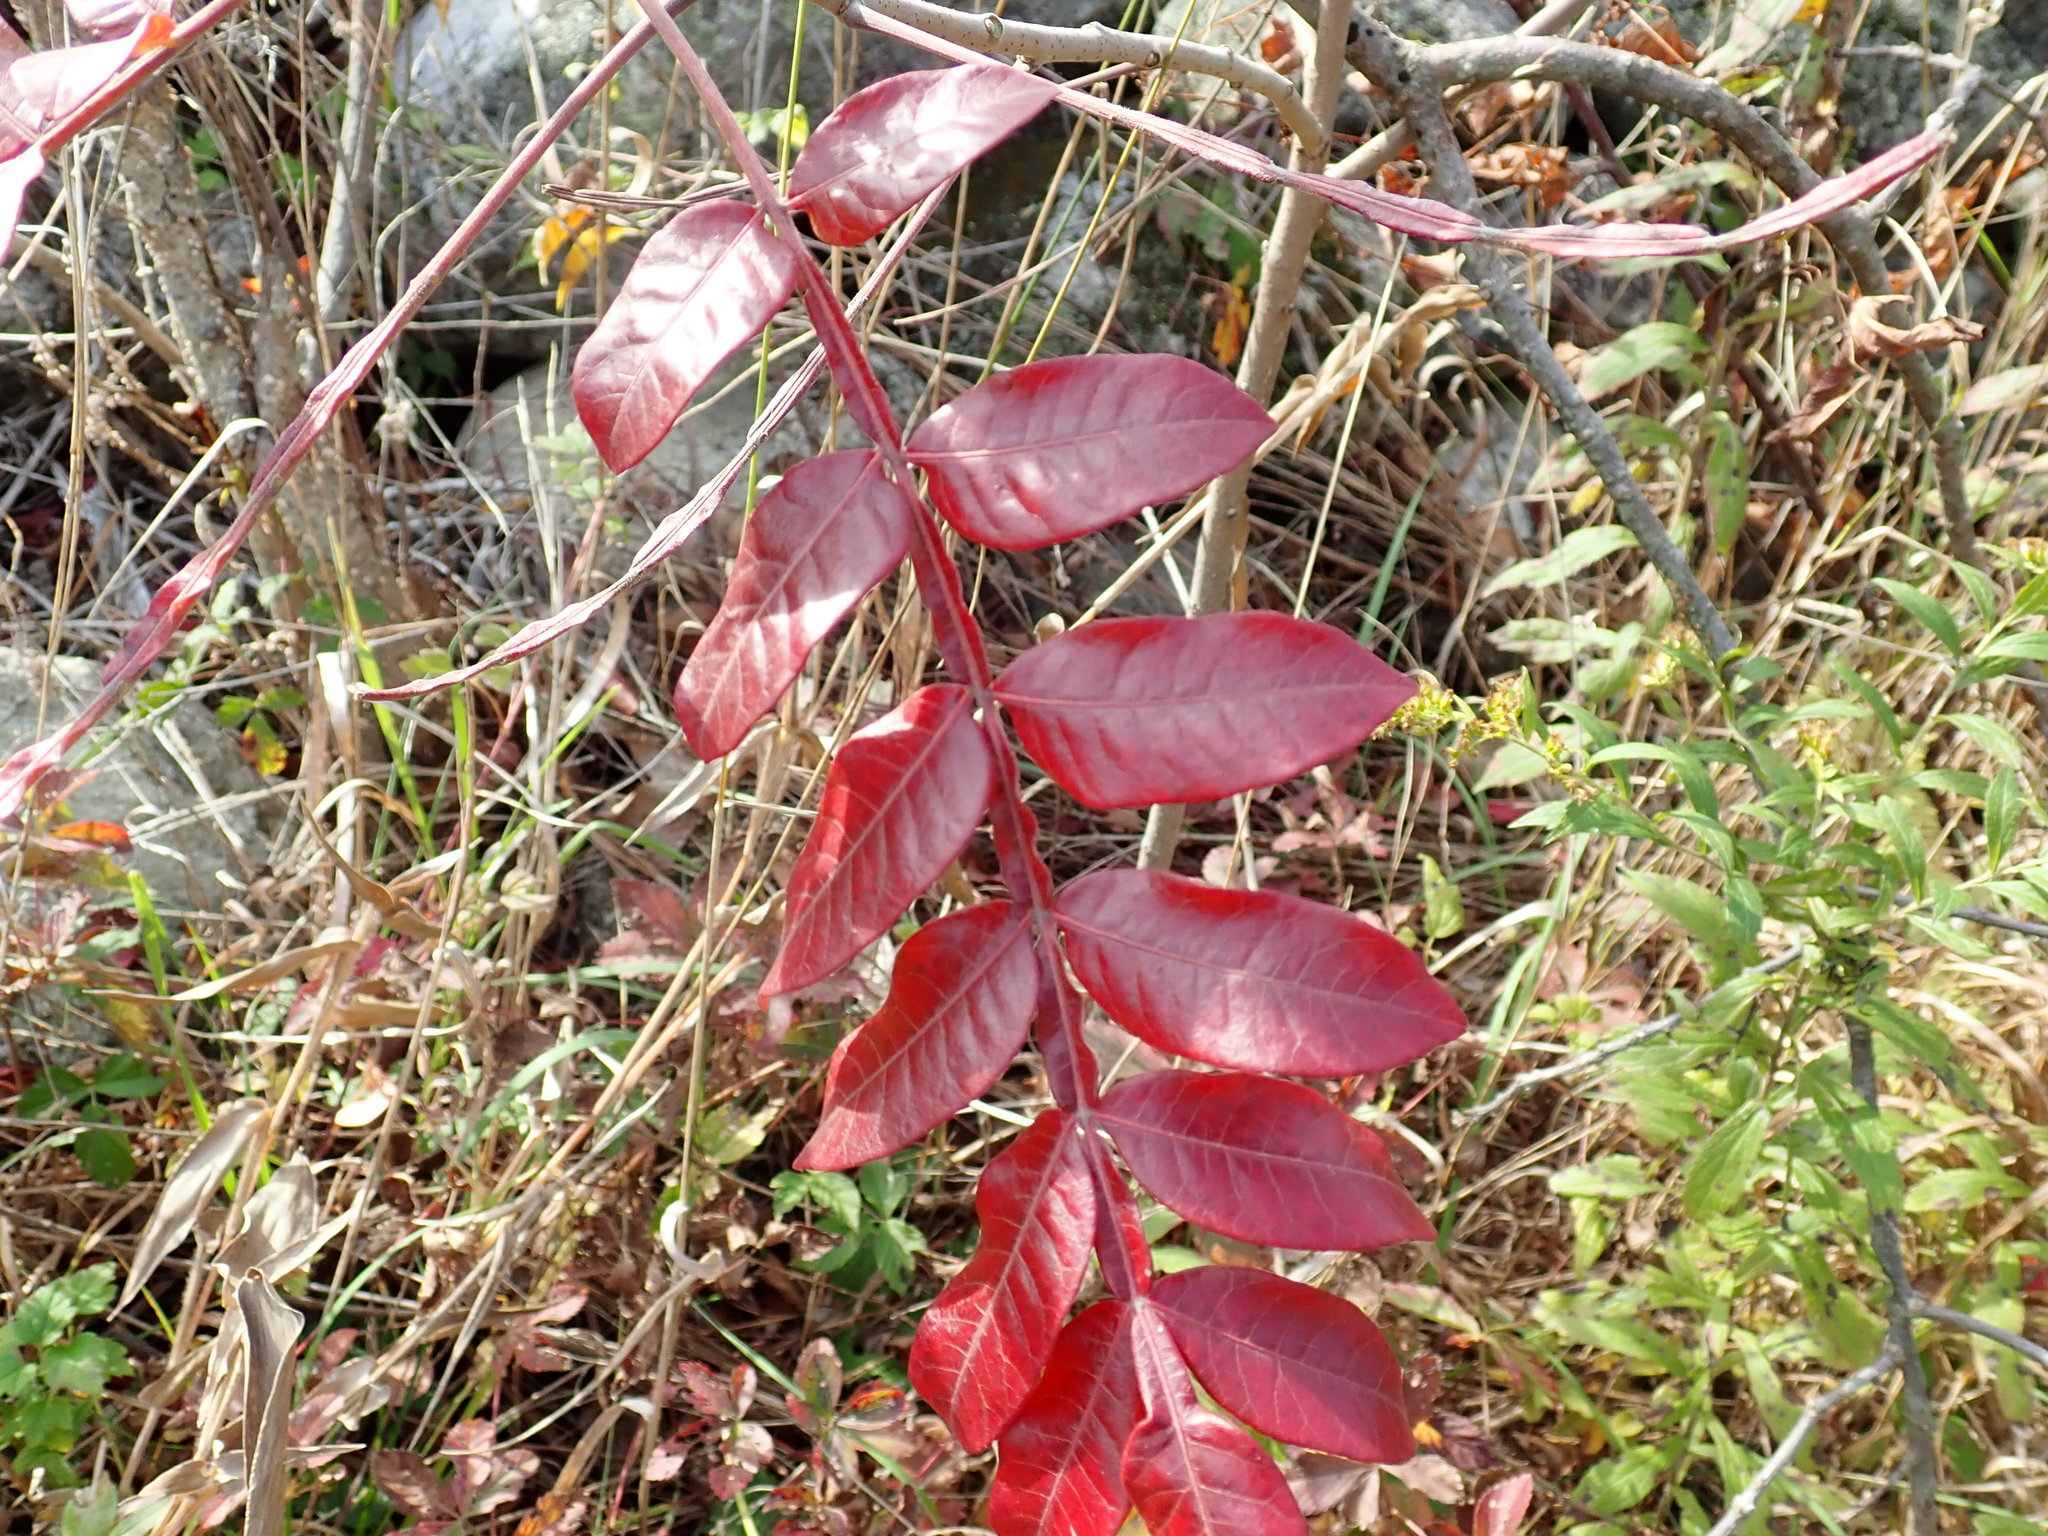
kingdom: Plantae
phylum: Tracheophyta
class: Magnoliopsida
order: Sapindales
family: Anacardiaceae
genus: Rhus
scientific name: Rhus copallina
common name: Shining sumac
